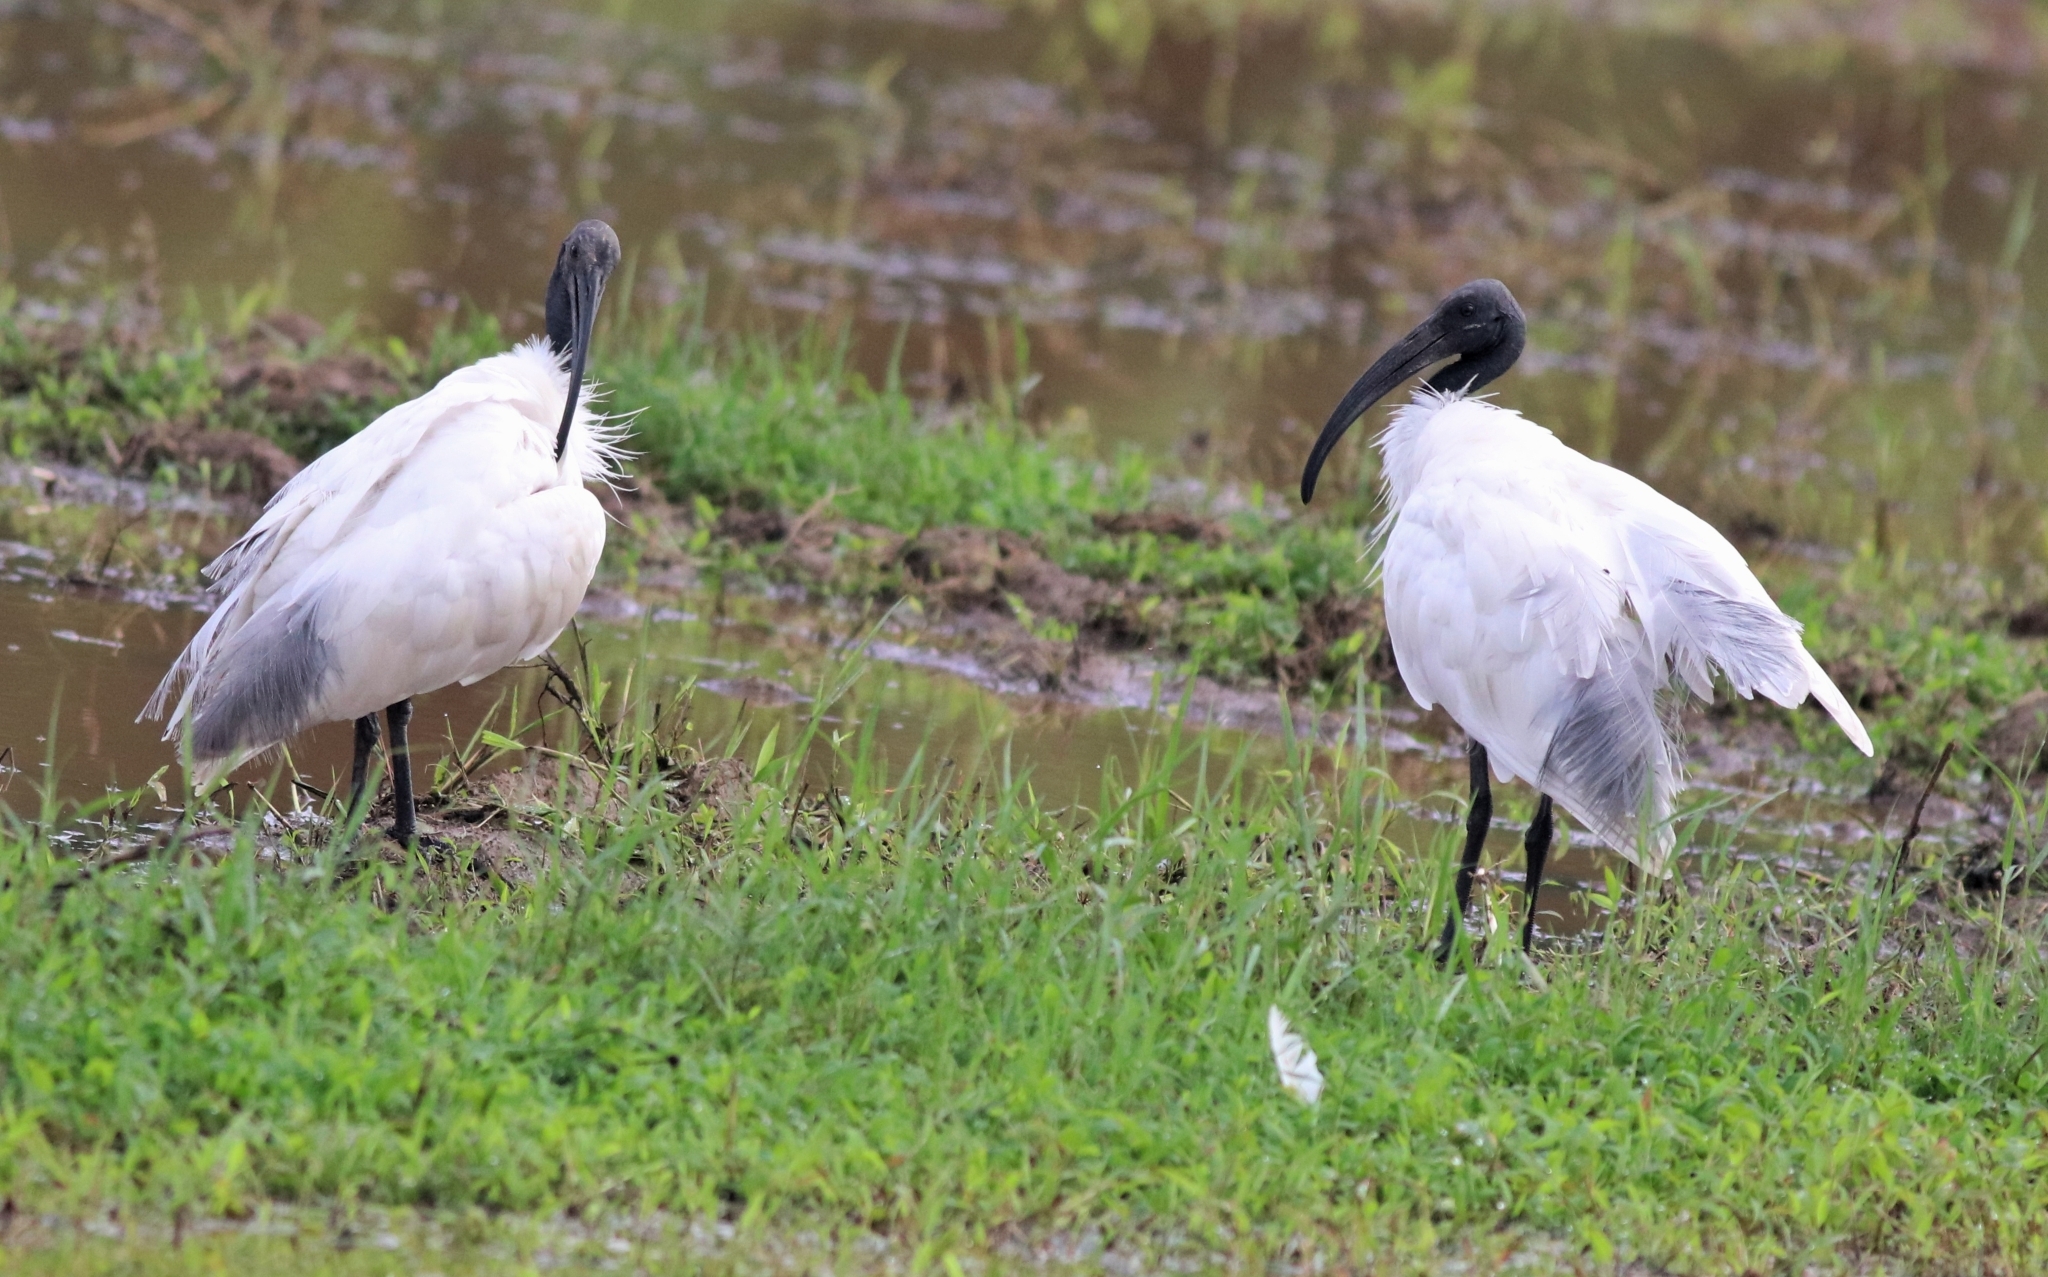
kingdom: Animalia
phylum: Chordata
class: Aves
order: Pelecaniformes
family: Threskiornithidae
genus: Threskiornis
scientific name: Threskiornis melanocephalus
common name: Black-headed ibis
